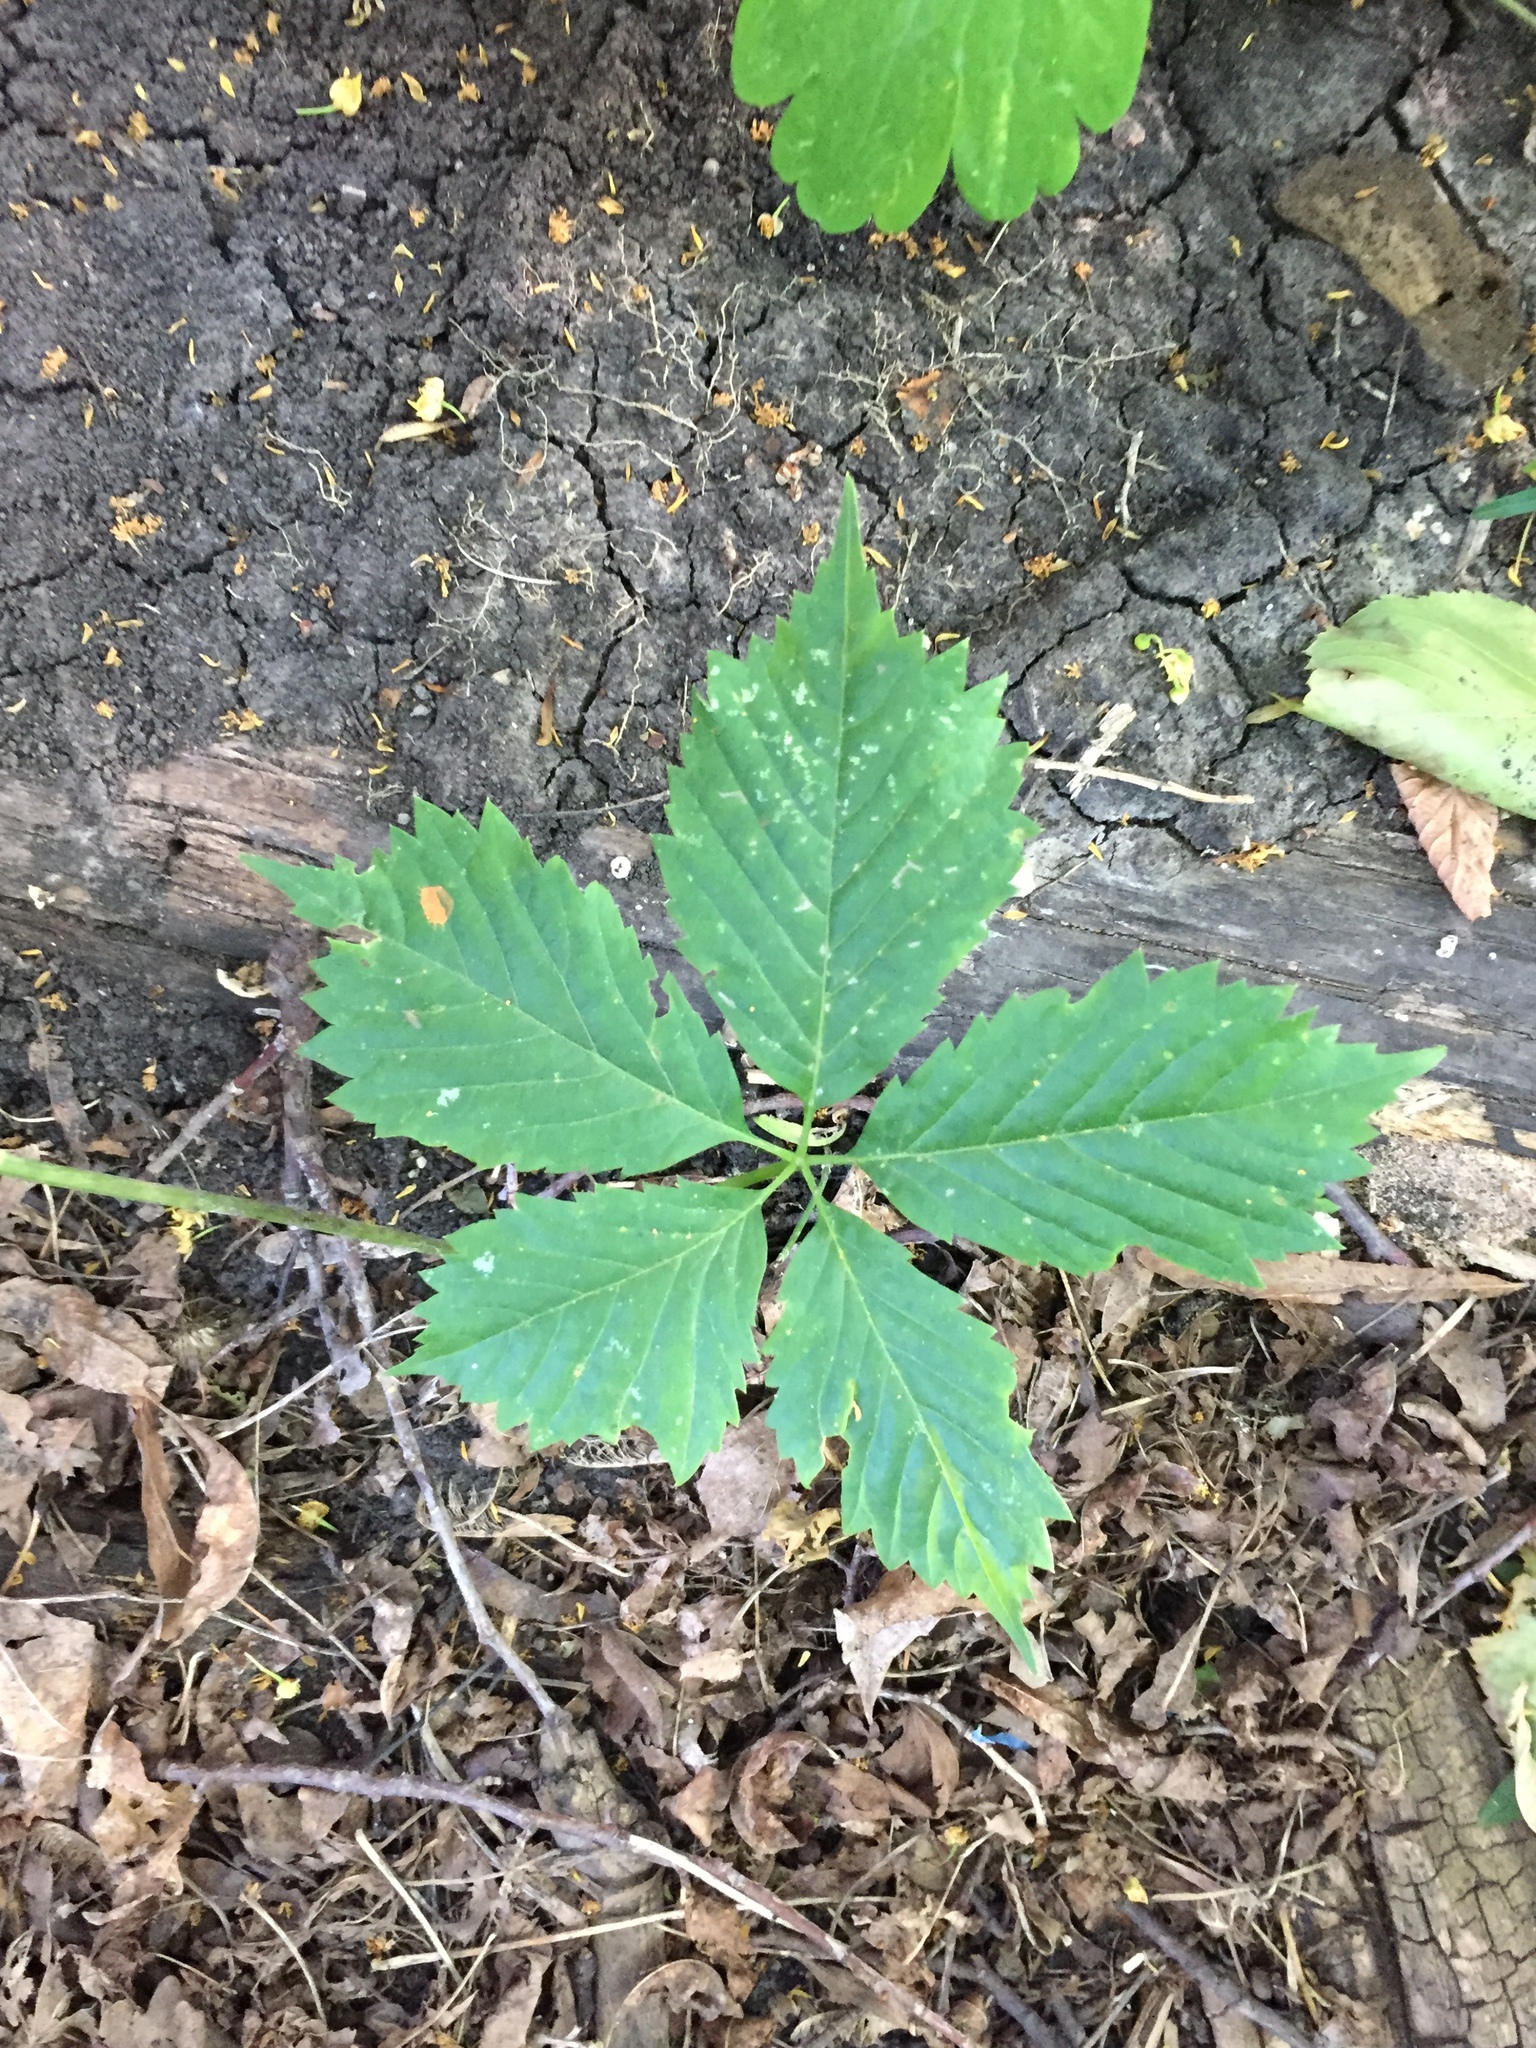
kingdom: Plantae
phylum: Tracheophyta
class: Magnoliopsida
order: Vitales
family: Vitaceae
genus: Parthenocissus
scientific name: Parthenocissus quinquefolia
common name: Virginia-creeper
